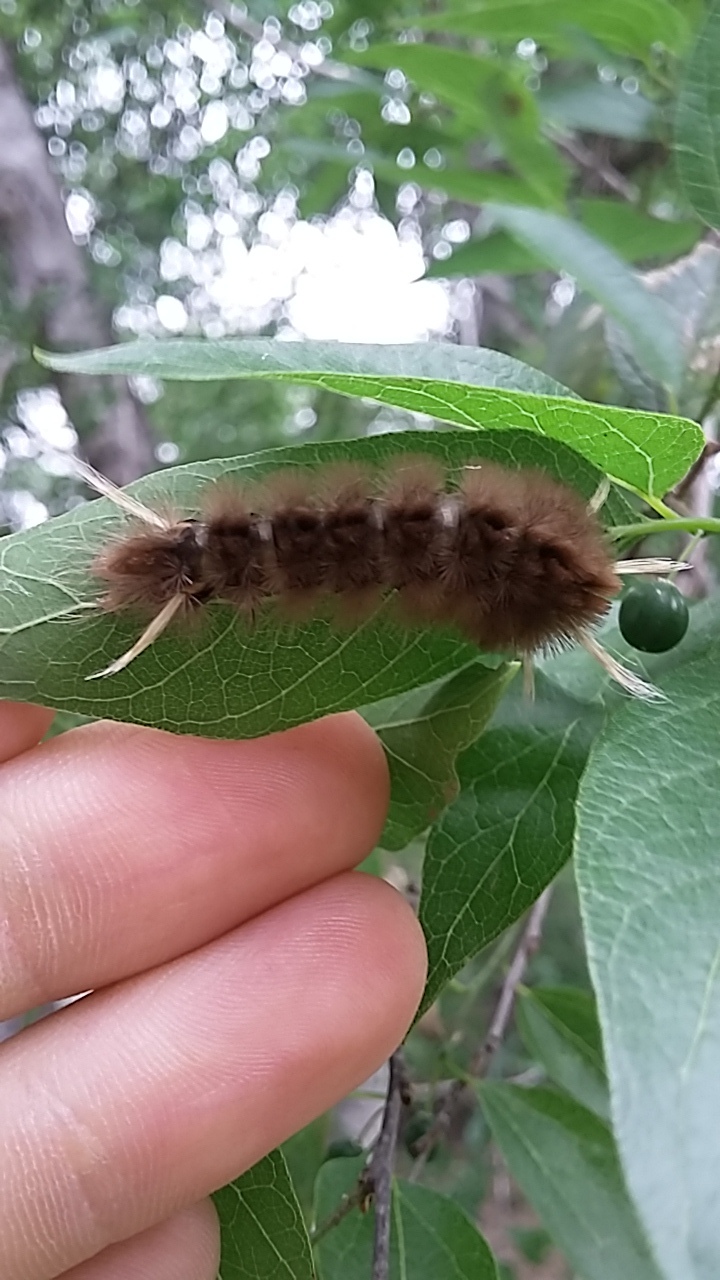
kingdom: Animalia
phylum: Arthropoda
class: Insecta
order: Lepidoptera
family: Erebidae
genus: Halysidota
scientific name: Halysidota schausi
